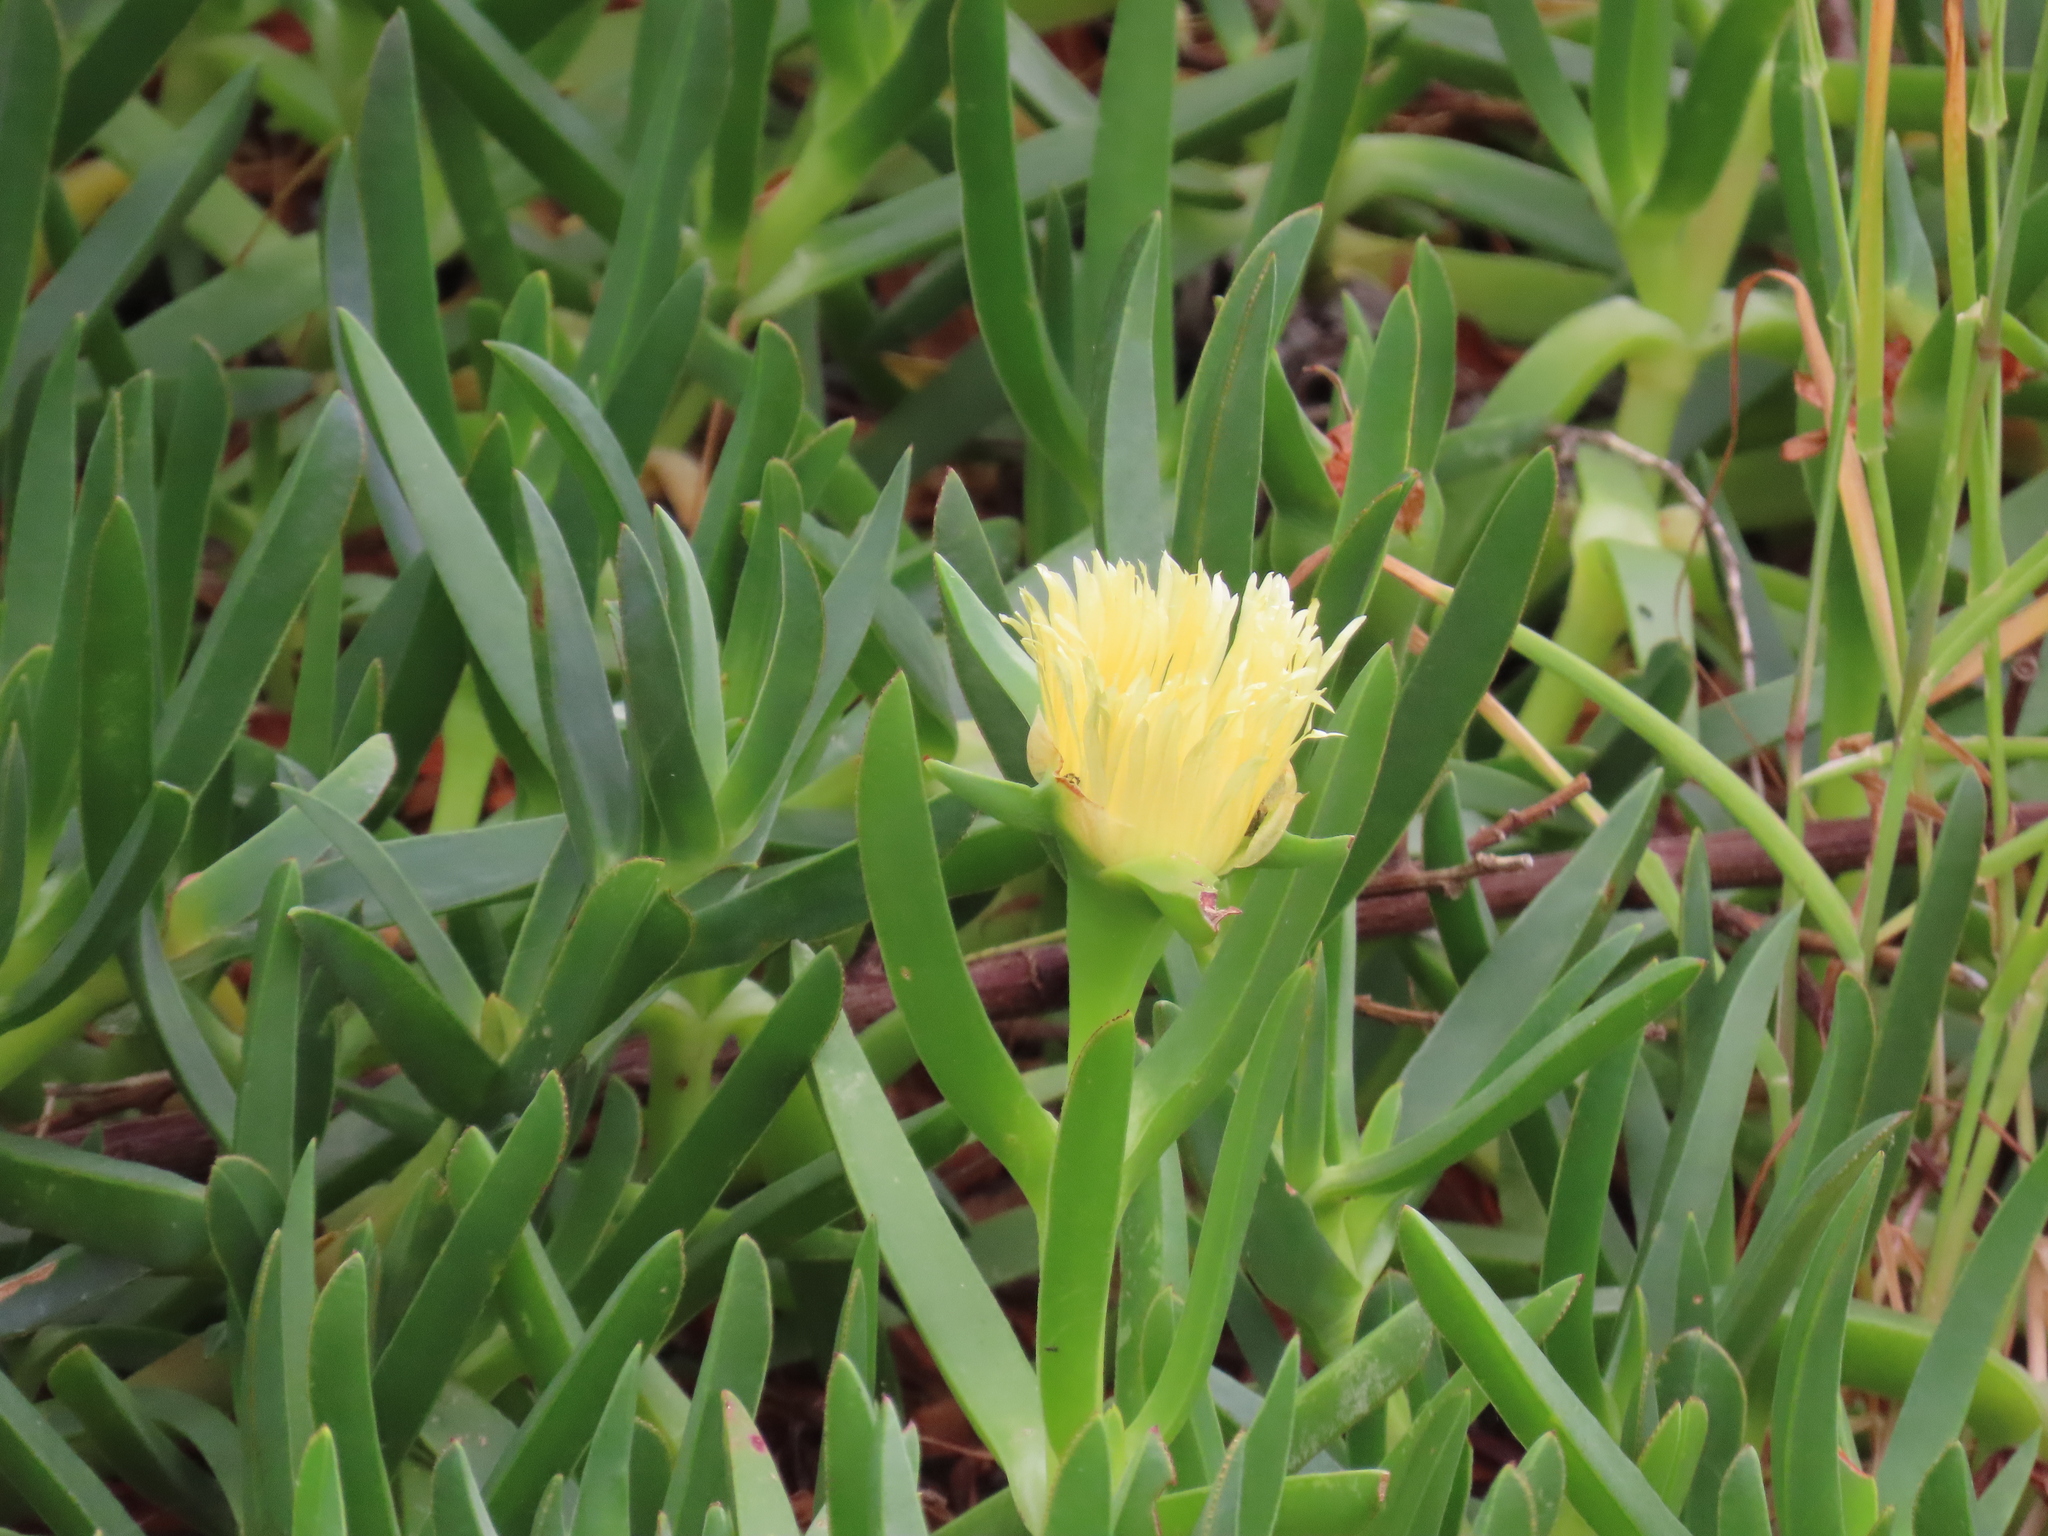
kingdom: Plantae
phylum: Tracheophyta
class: Magnoliopsida
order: Caryophyllales
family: Aizoaceae
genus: Carpobrotus
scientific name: Carpobrotus edulis
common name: Hottentot-fig
